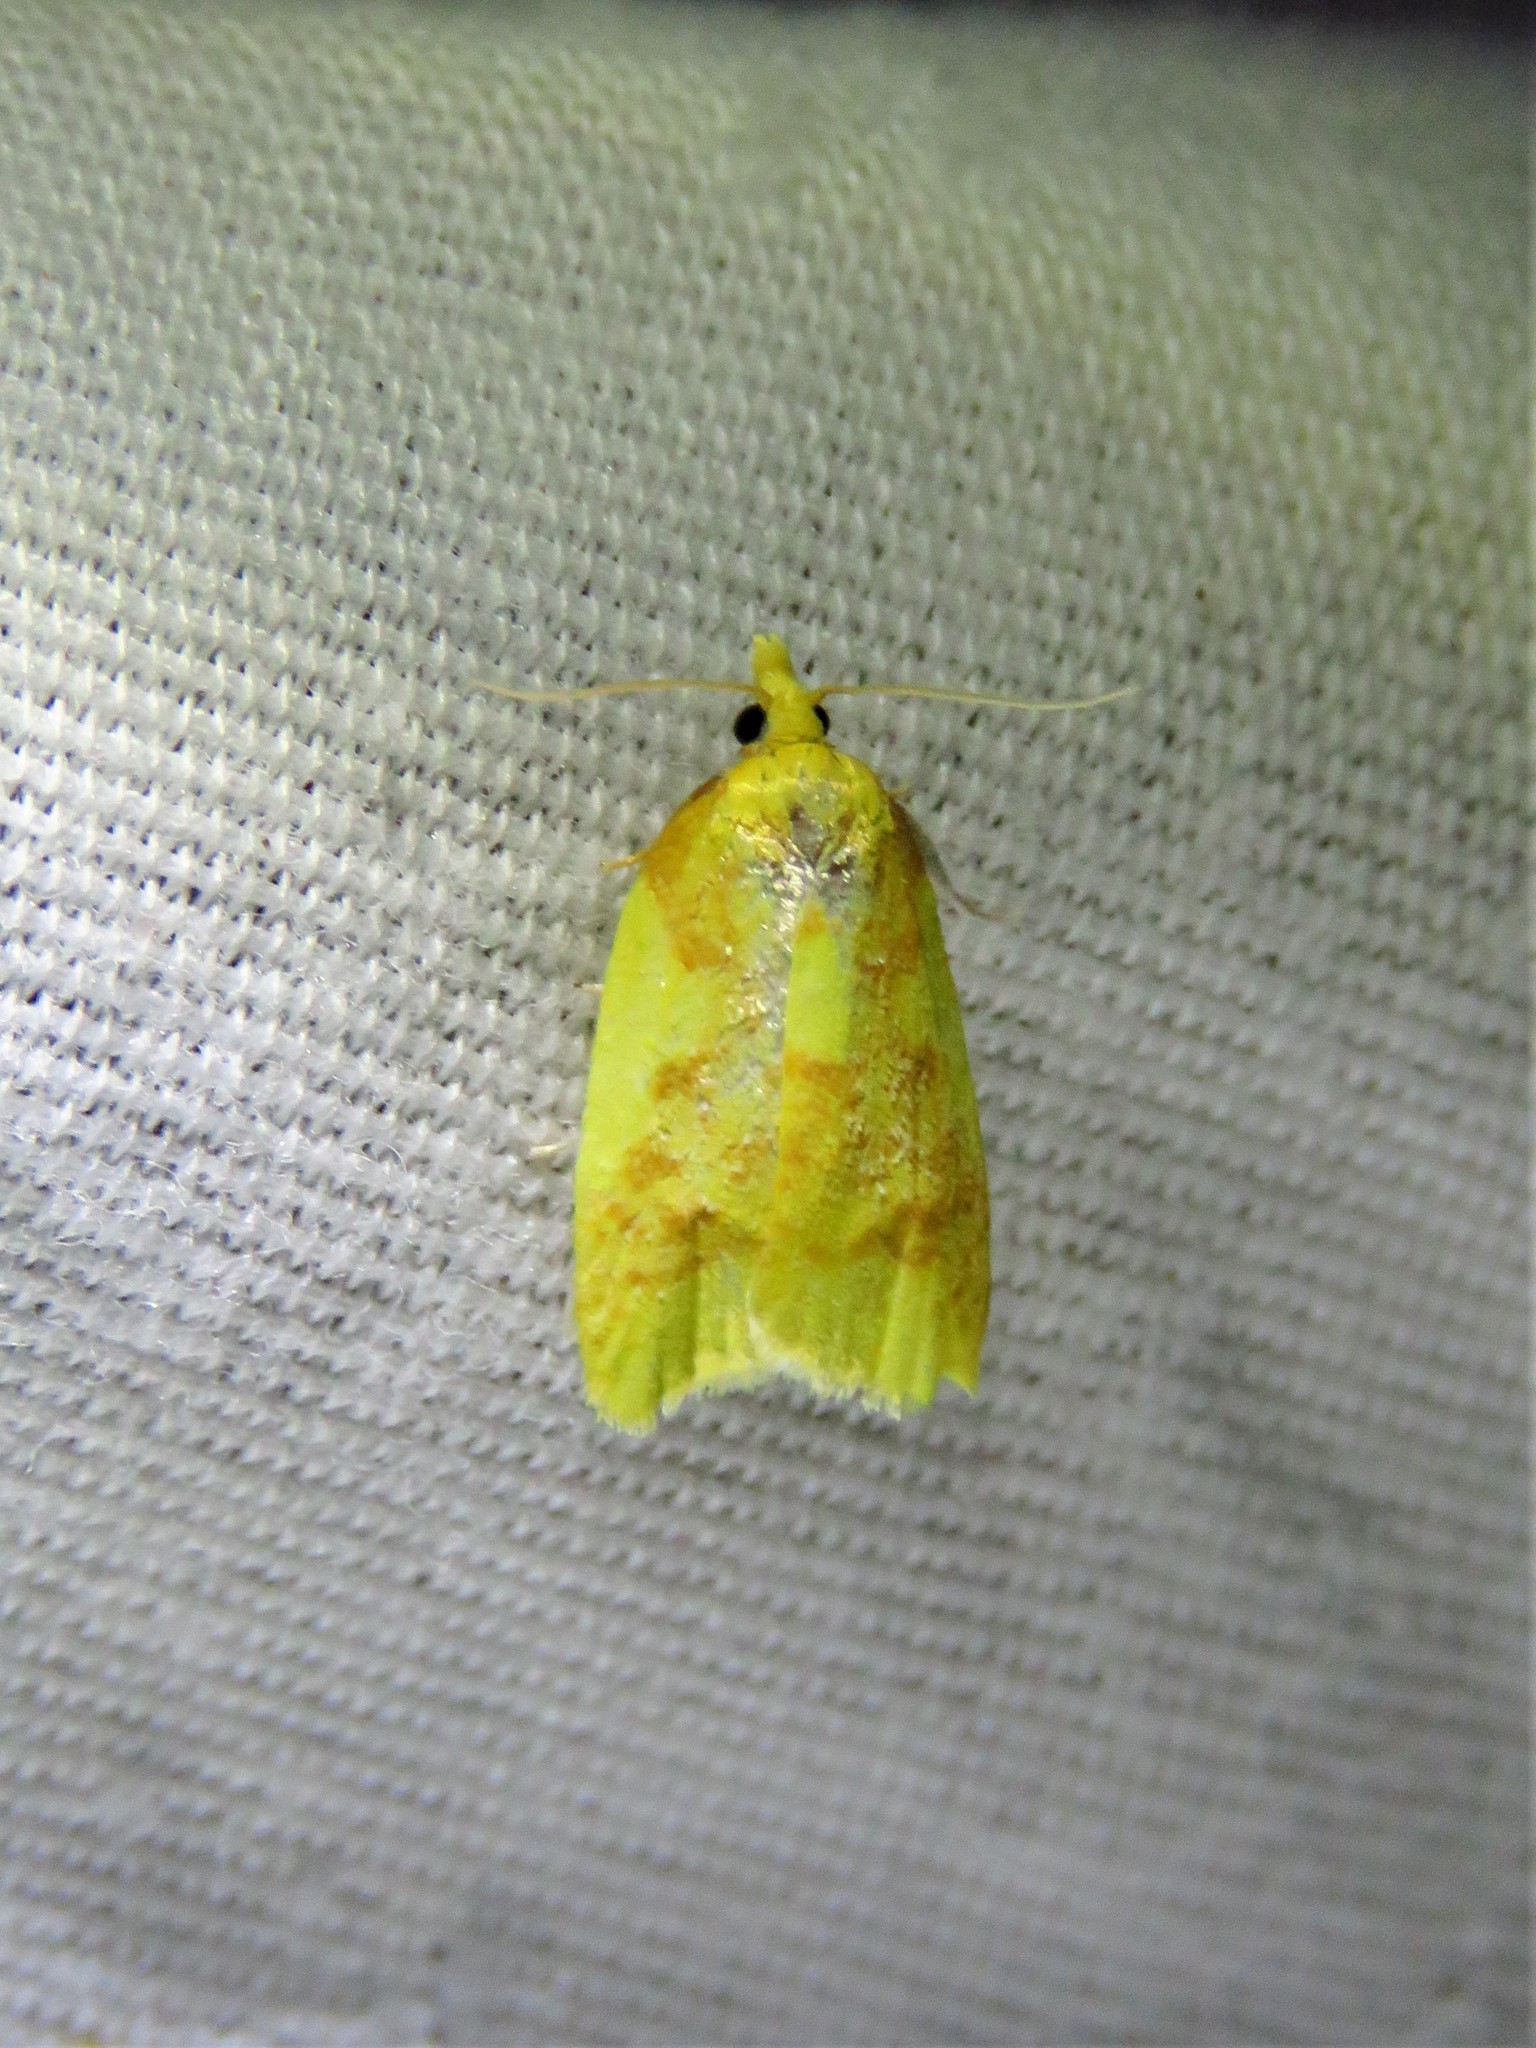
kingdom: Animalia
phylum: Arthropoda
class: Insecta
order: Lepidoptera
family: Tortricidae
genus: Sparganothis
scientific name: Sparganothis pulcherrimana
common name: Beautiful sparganothis
